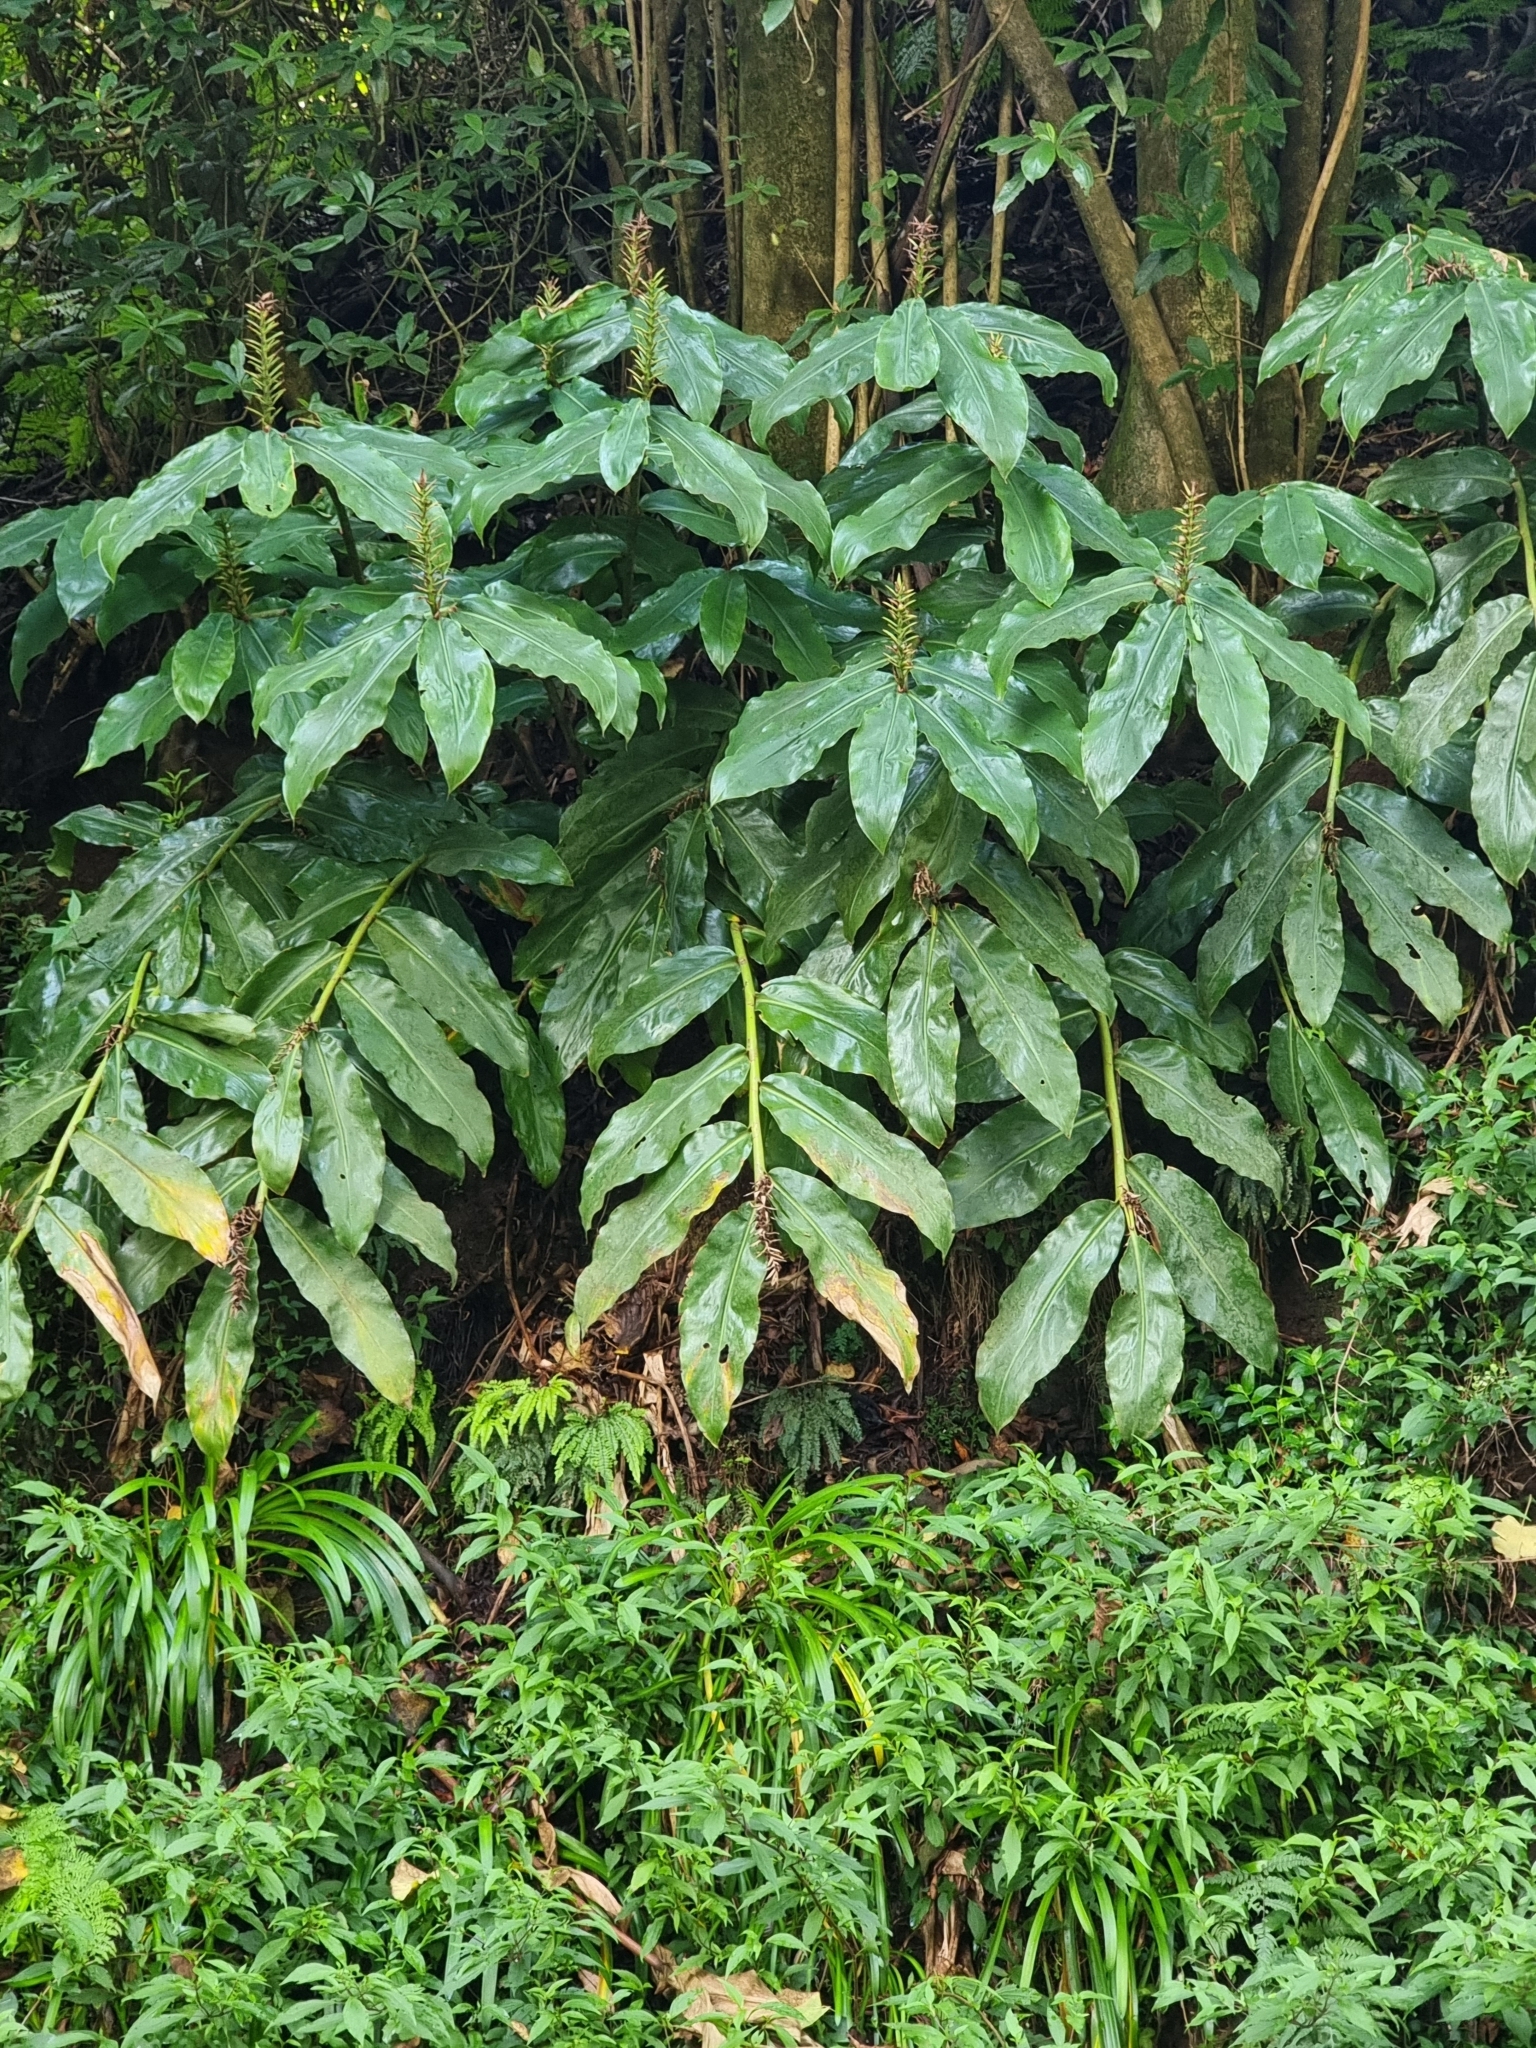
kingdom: Plantae
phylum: Tracheophyta
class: Liliopsida
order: Zingiberales
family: Zingiberaceae
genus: Hedychium
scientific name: Hedychium gardnerianum
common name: Himalayan ginger
